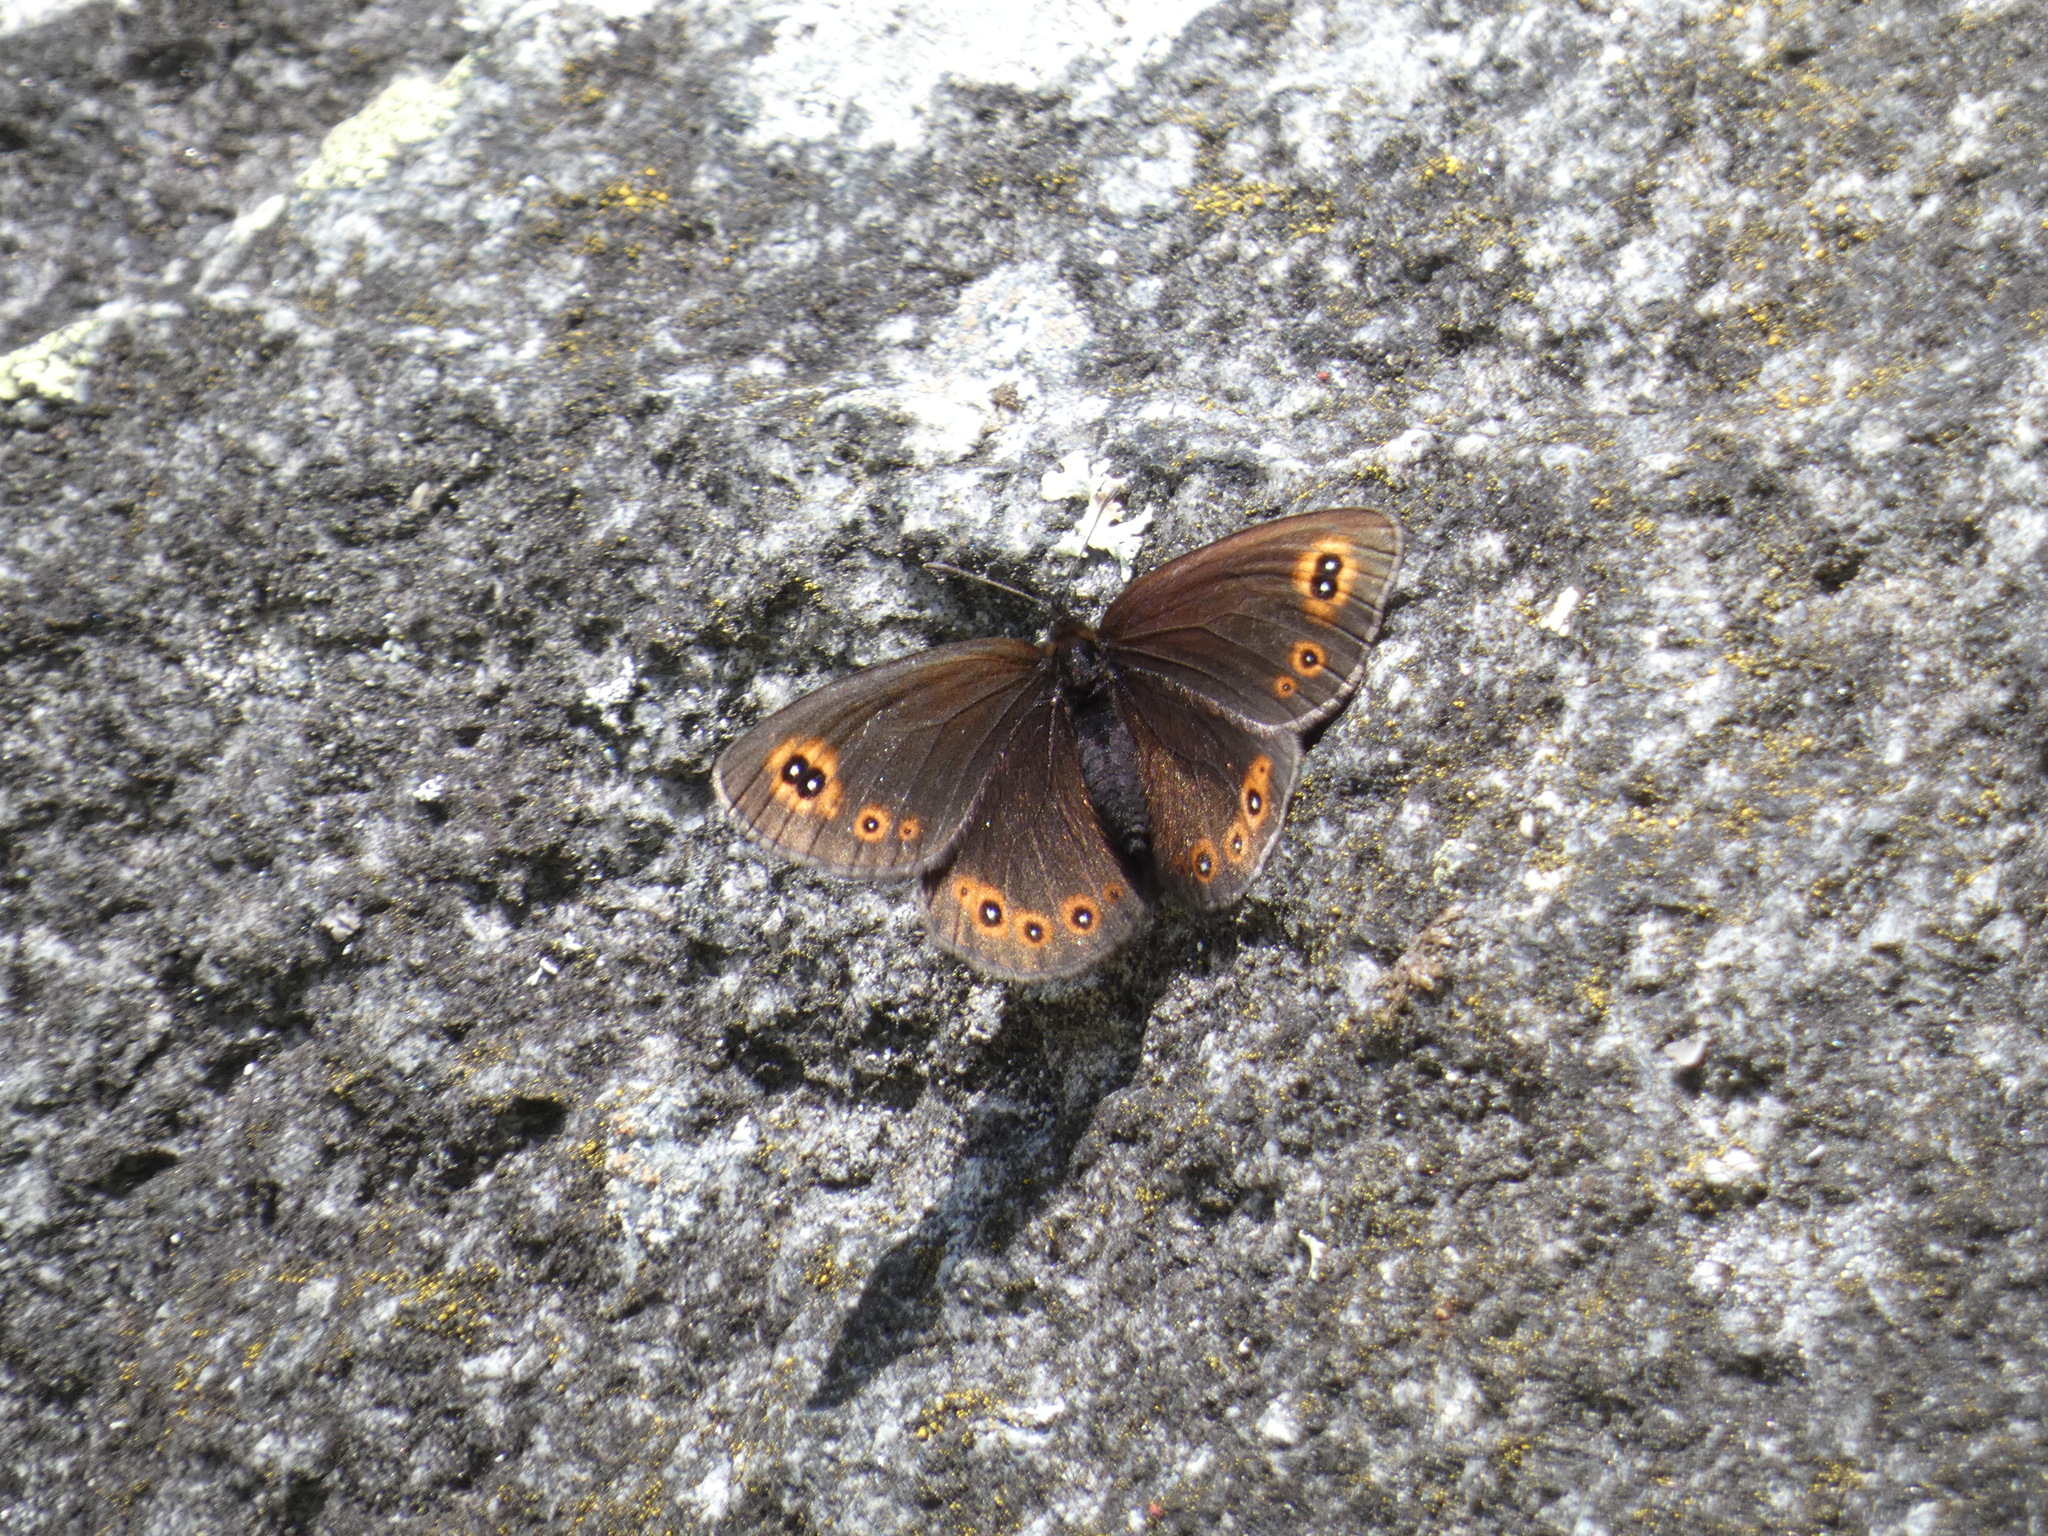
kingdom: Animalia
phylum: Arthropoda
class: Insecta
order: Lepidoptera
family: Nymphalidae
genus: Erebia
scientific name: Erebia medusa
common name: Woodland ringlet
